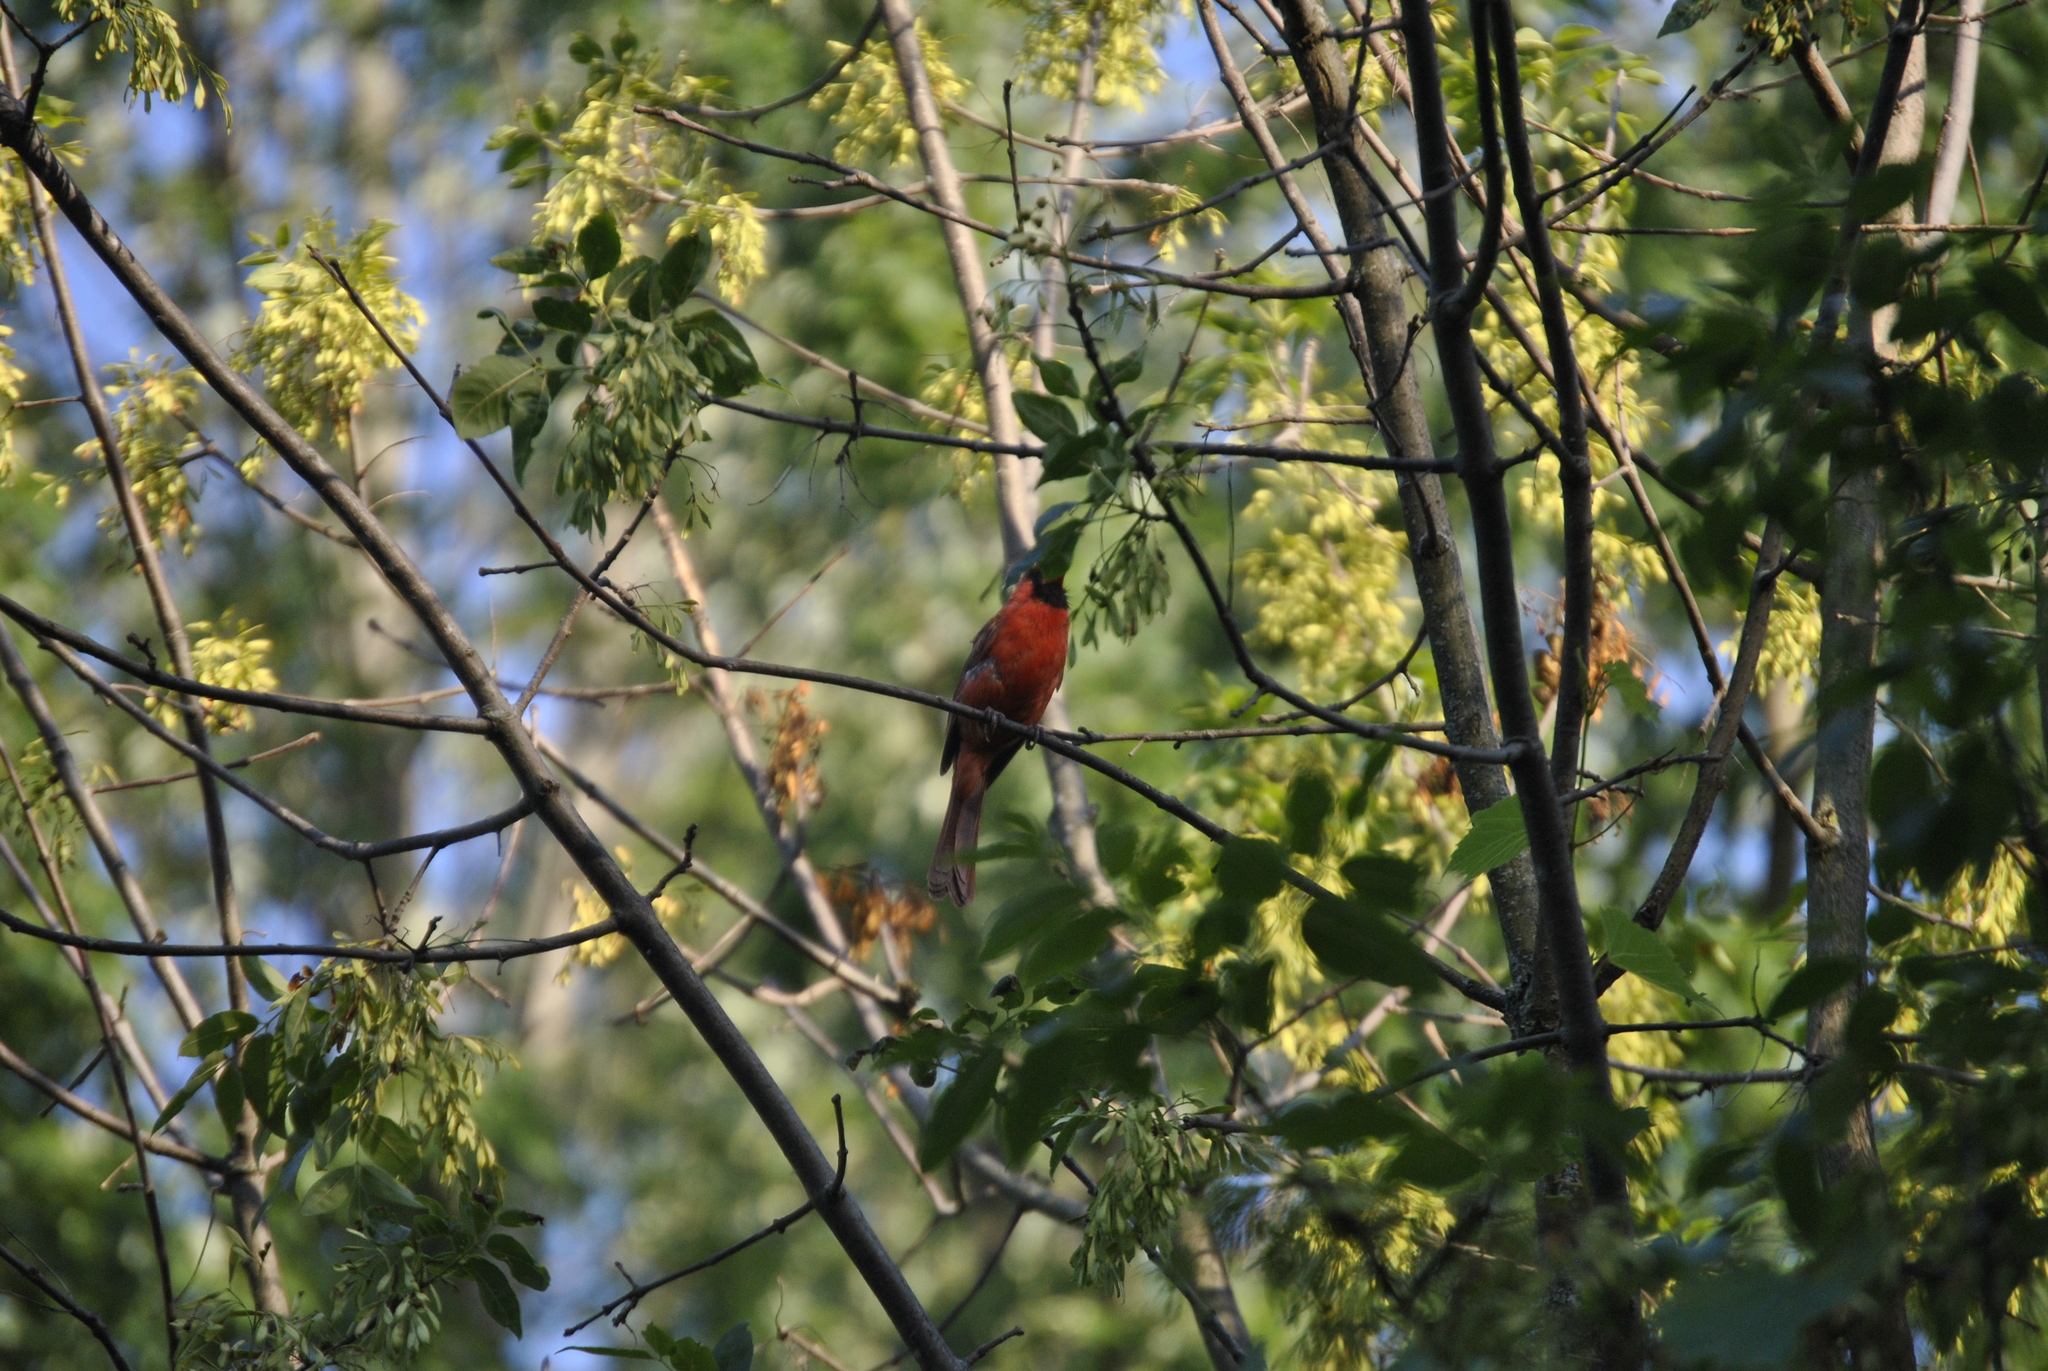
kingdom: Animalia
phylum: Chordata
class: Aves
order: Passeriformes
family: Cardinalidae
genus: Cardinalis
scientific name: Cardinalis cardinalis
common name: Northern cardinal
